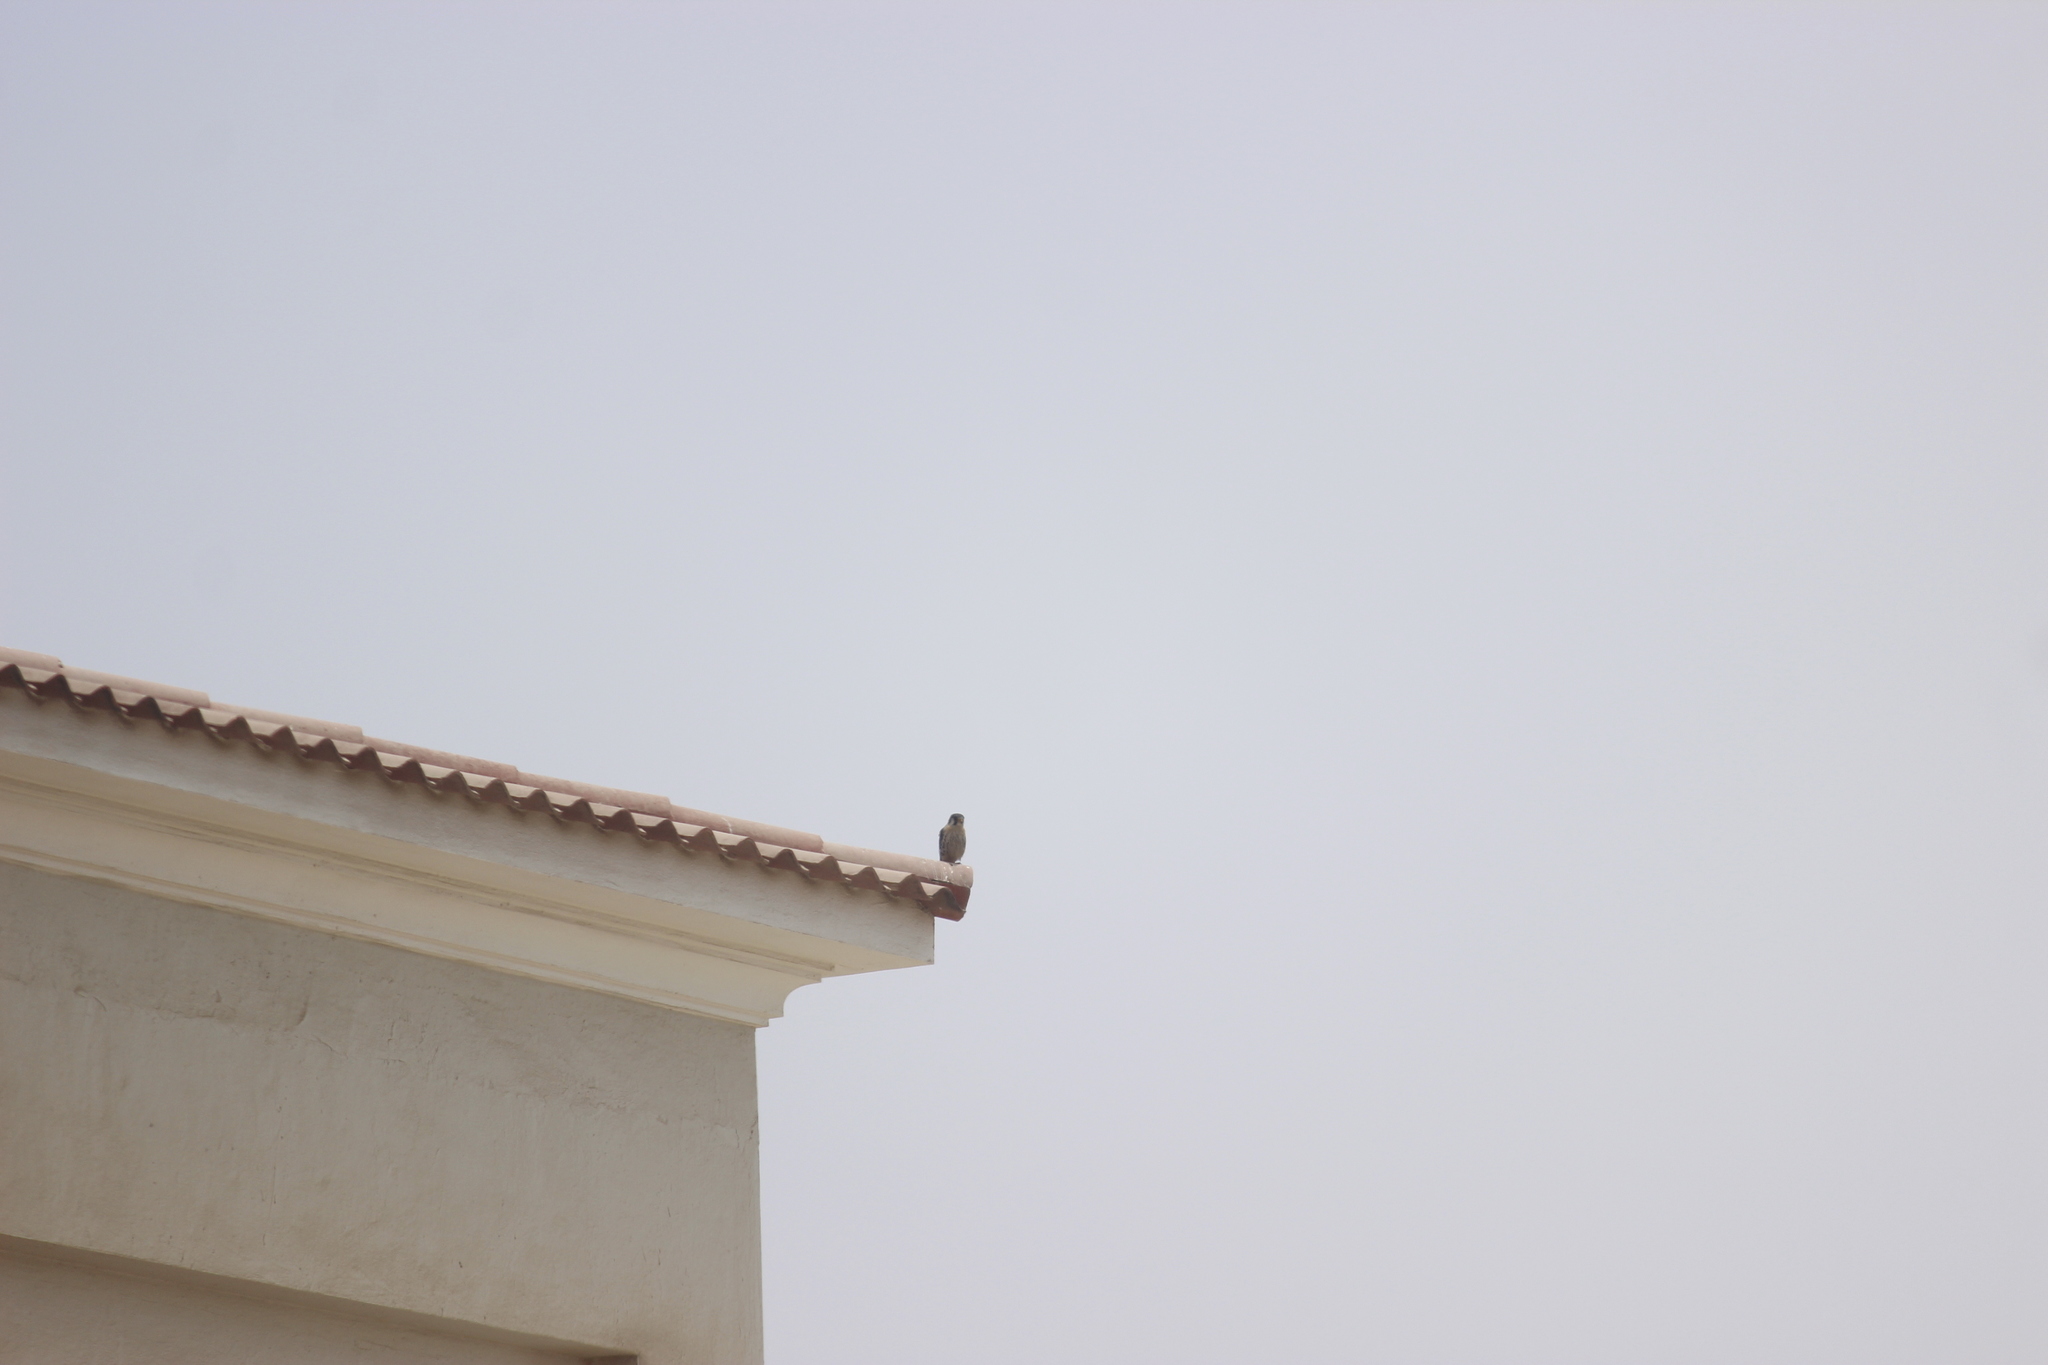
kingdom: Animalia
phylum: Chordata
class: Aves
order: Falconiformes
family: Falconidae
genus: Falco
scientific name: Falco sparverius
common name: American kestrel
